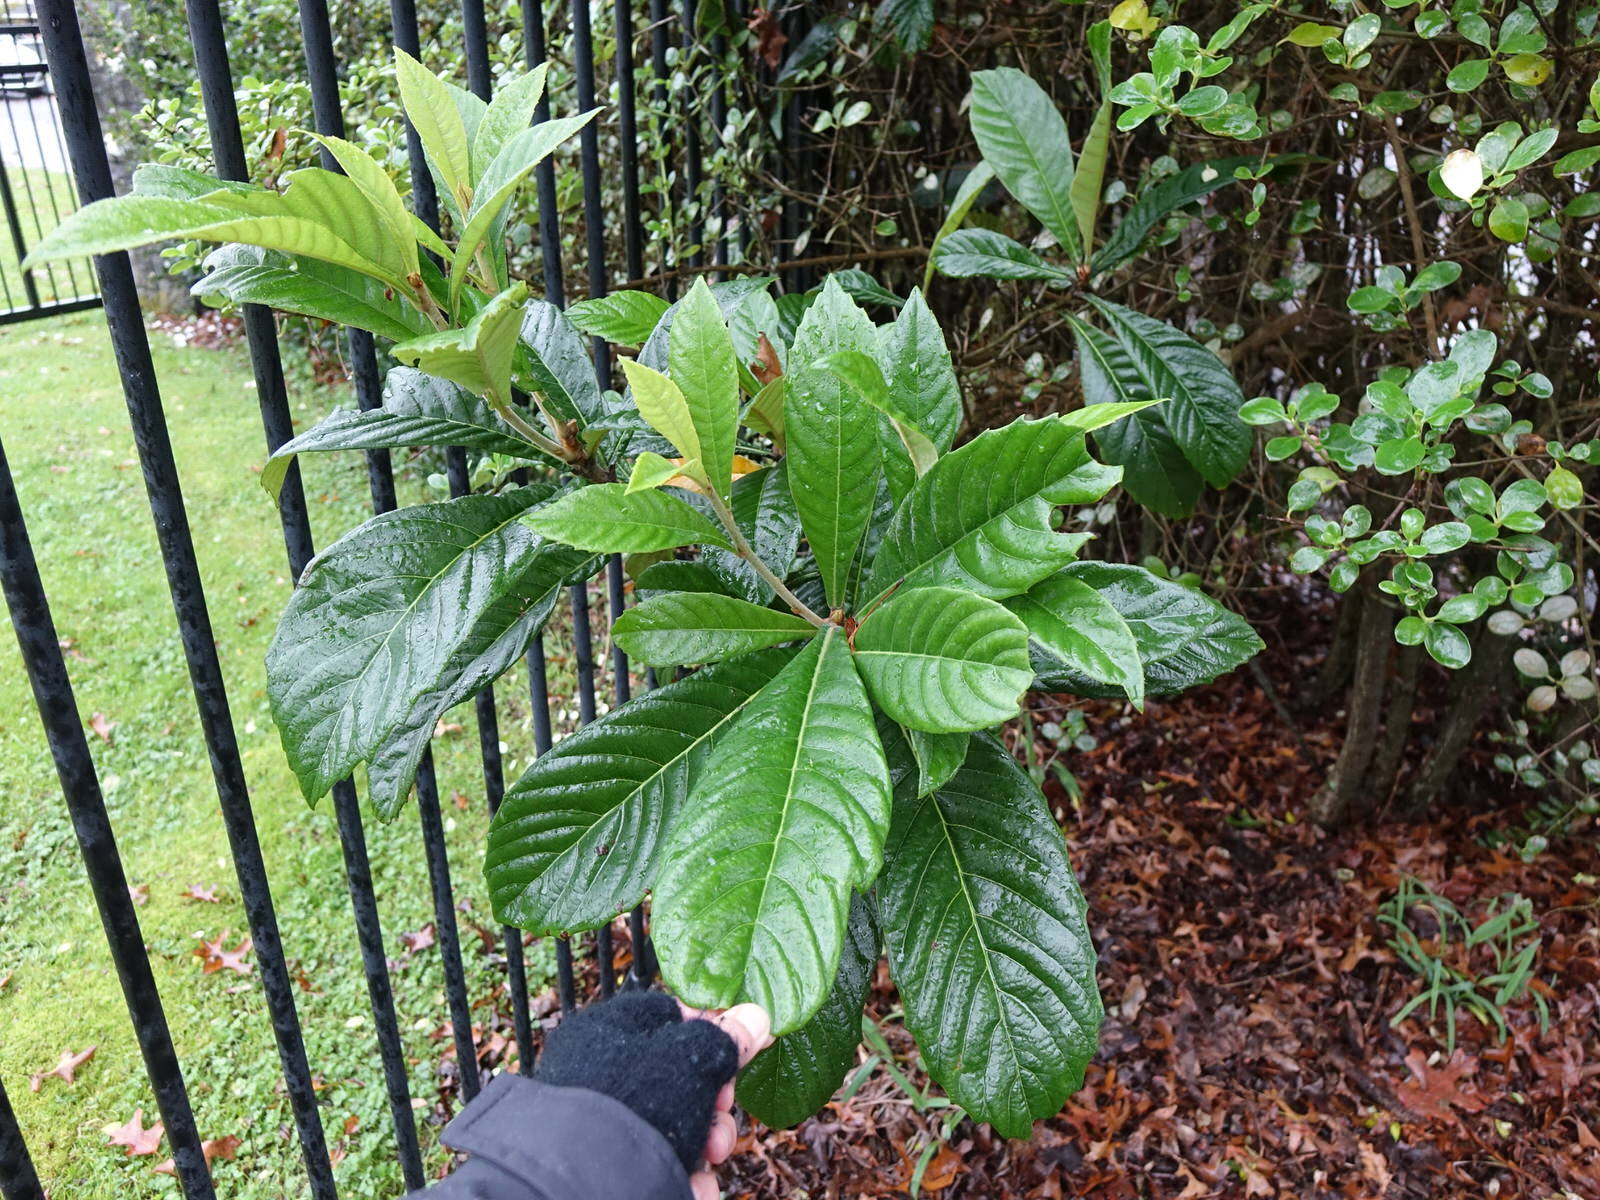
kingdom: Plantae
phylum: Tracheophyta
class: Magnoliopsida
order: Rosales
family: Rosaceae
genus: Rhaphiolepis
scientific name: Rhaphiolepis bibas
